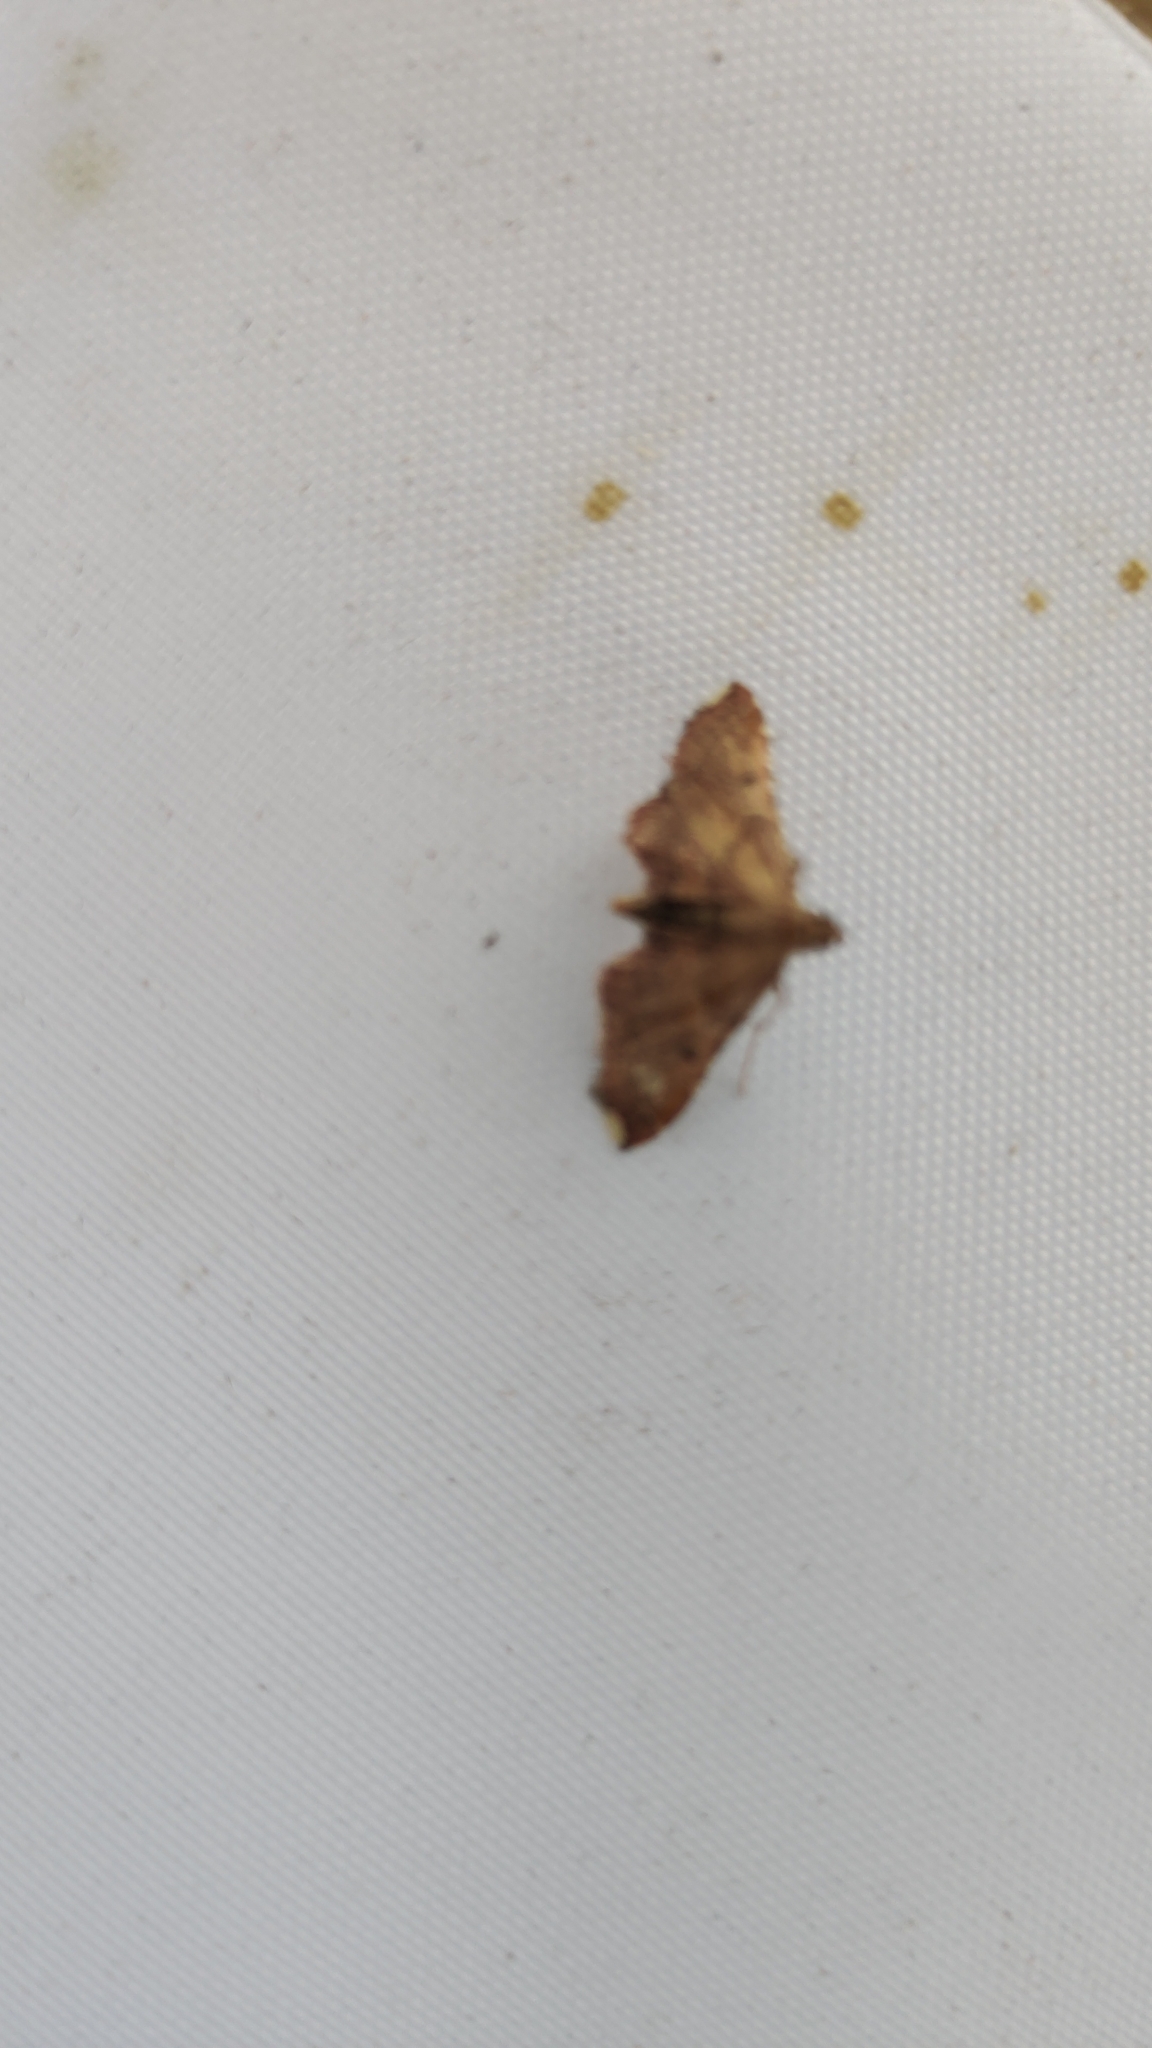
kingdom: Animalia
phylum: Arthropoda
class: Insecta
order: Lepidoptera
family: Pyralidae
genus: Endotricha
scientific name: Endotricha flammealis
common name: Rosy tabby
